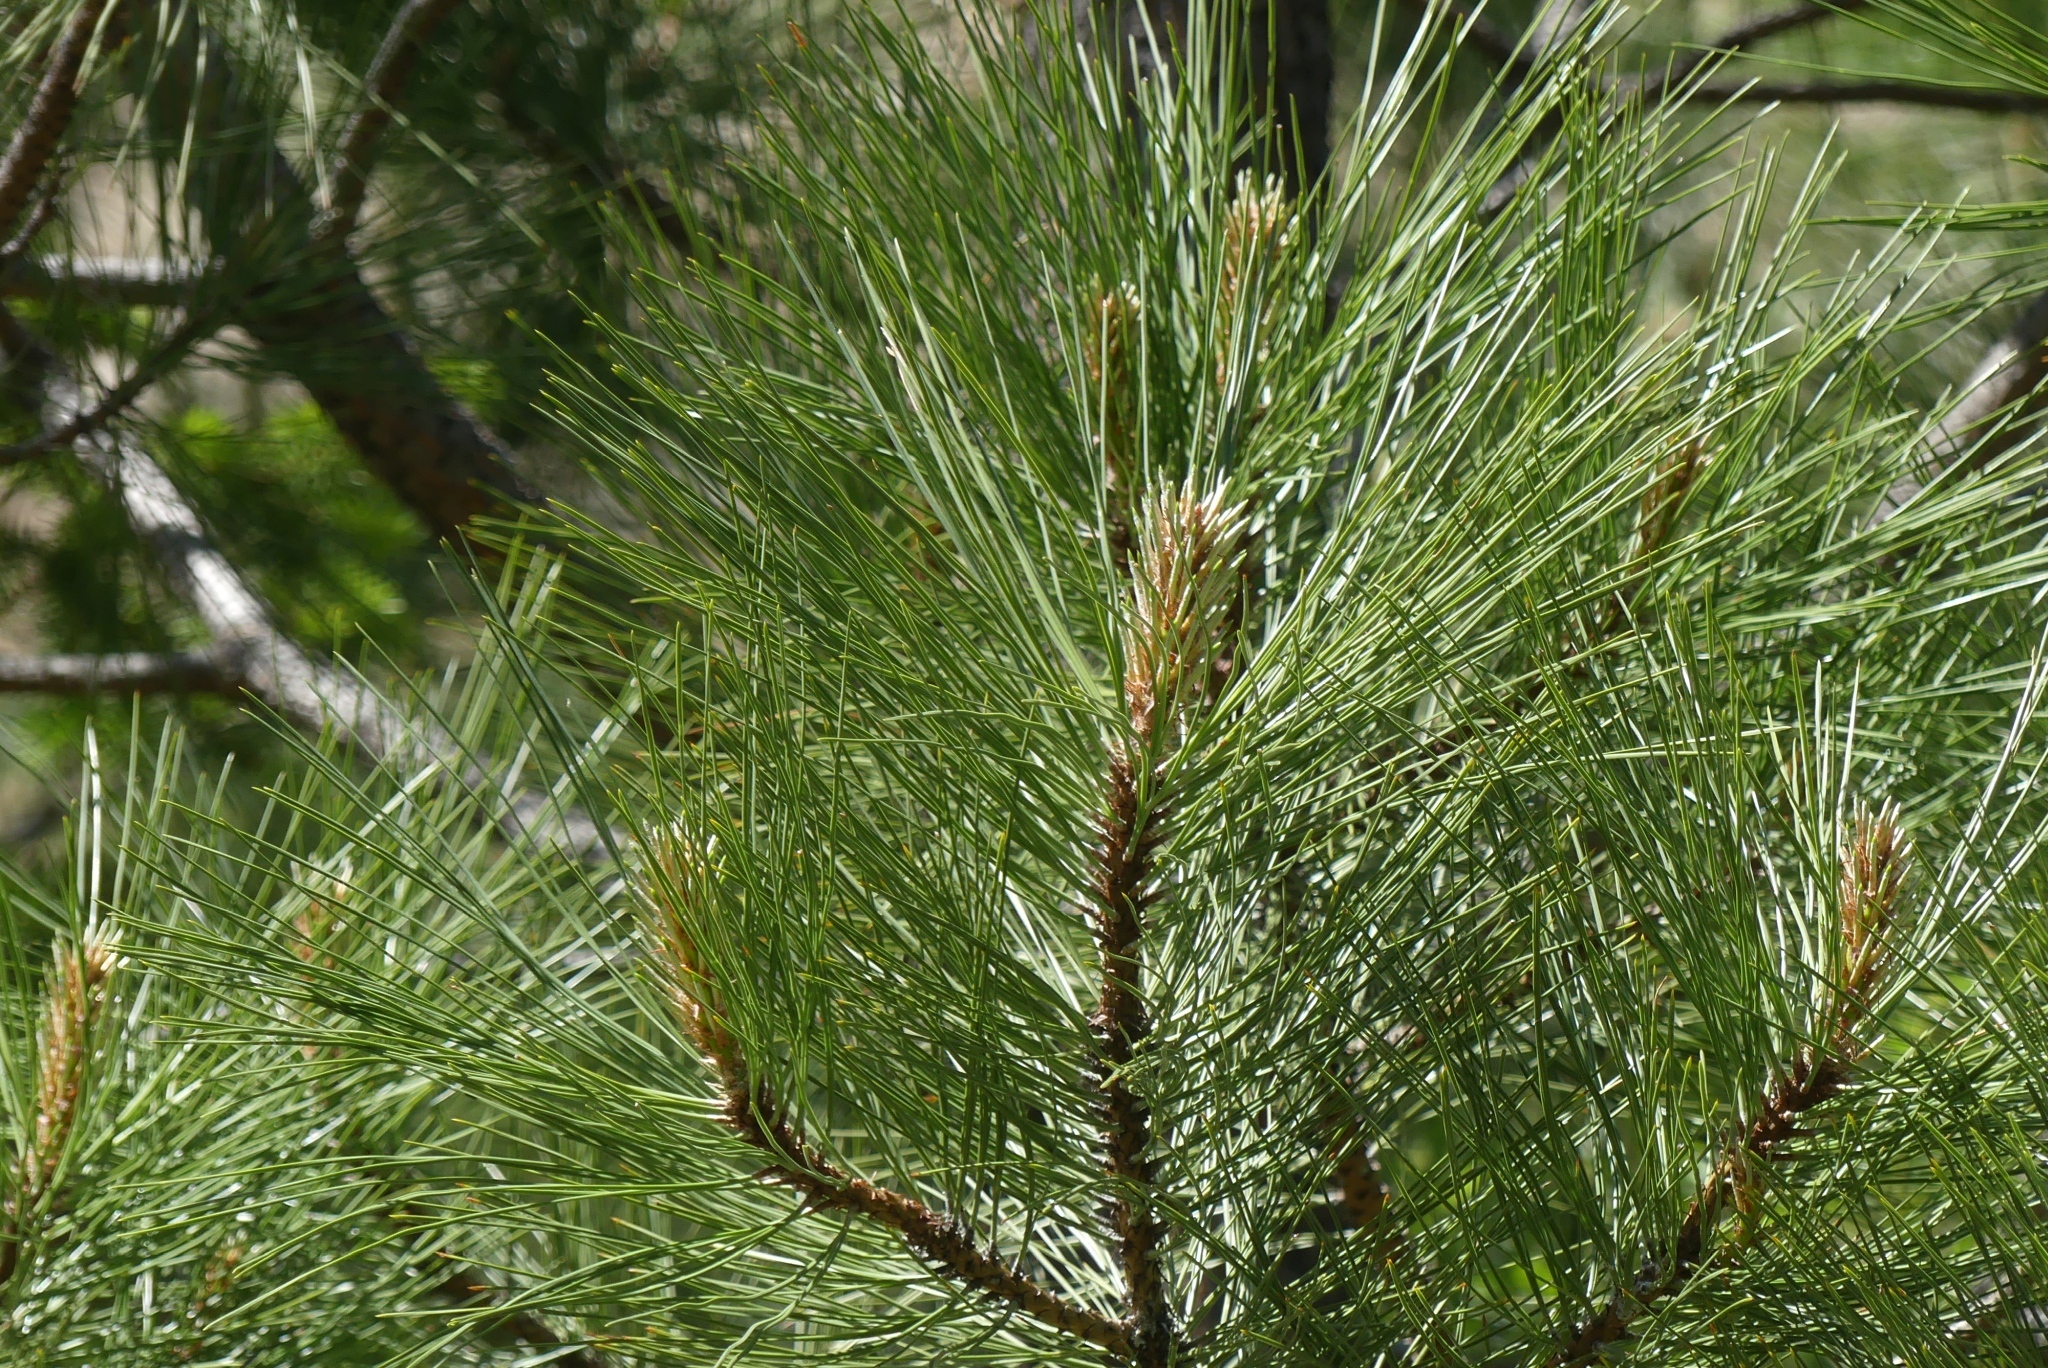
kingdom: Plantae
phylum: Tracheophyta
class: Pinopsida
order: Pinales
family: Pinaceae
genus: Pinus
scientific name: Pinus ponderosa
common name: Western yellow-pine
